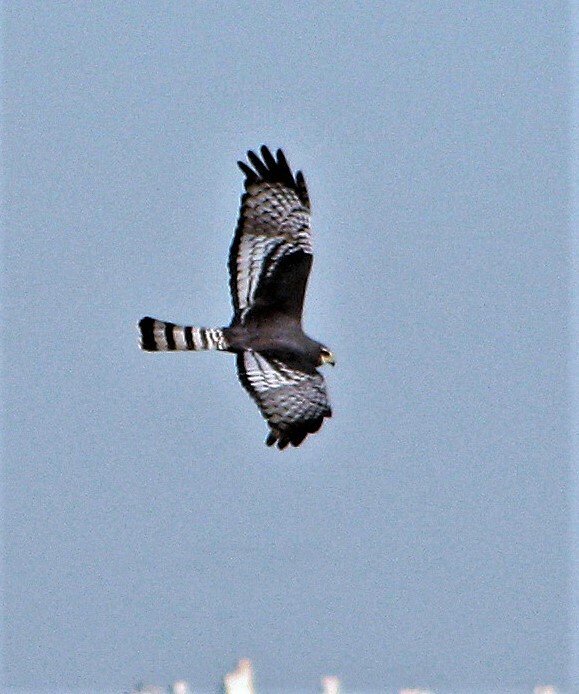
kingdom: Animalia
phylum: Chordata
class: Aves
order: Accipitriformes
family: Accipitridae
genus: Circus
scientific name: Circus buffoni
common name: Long-winged harrier
